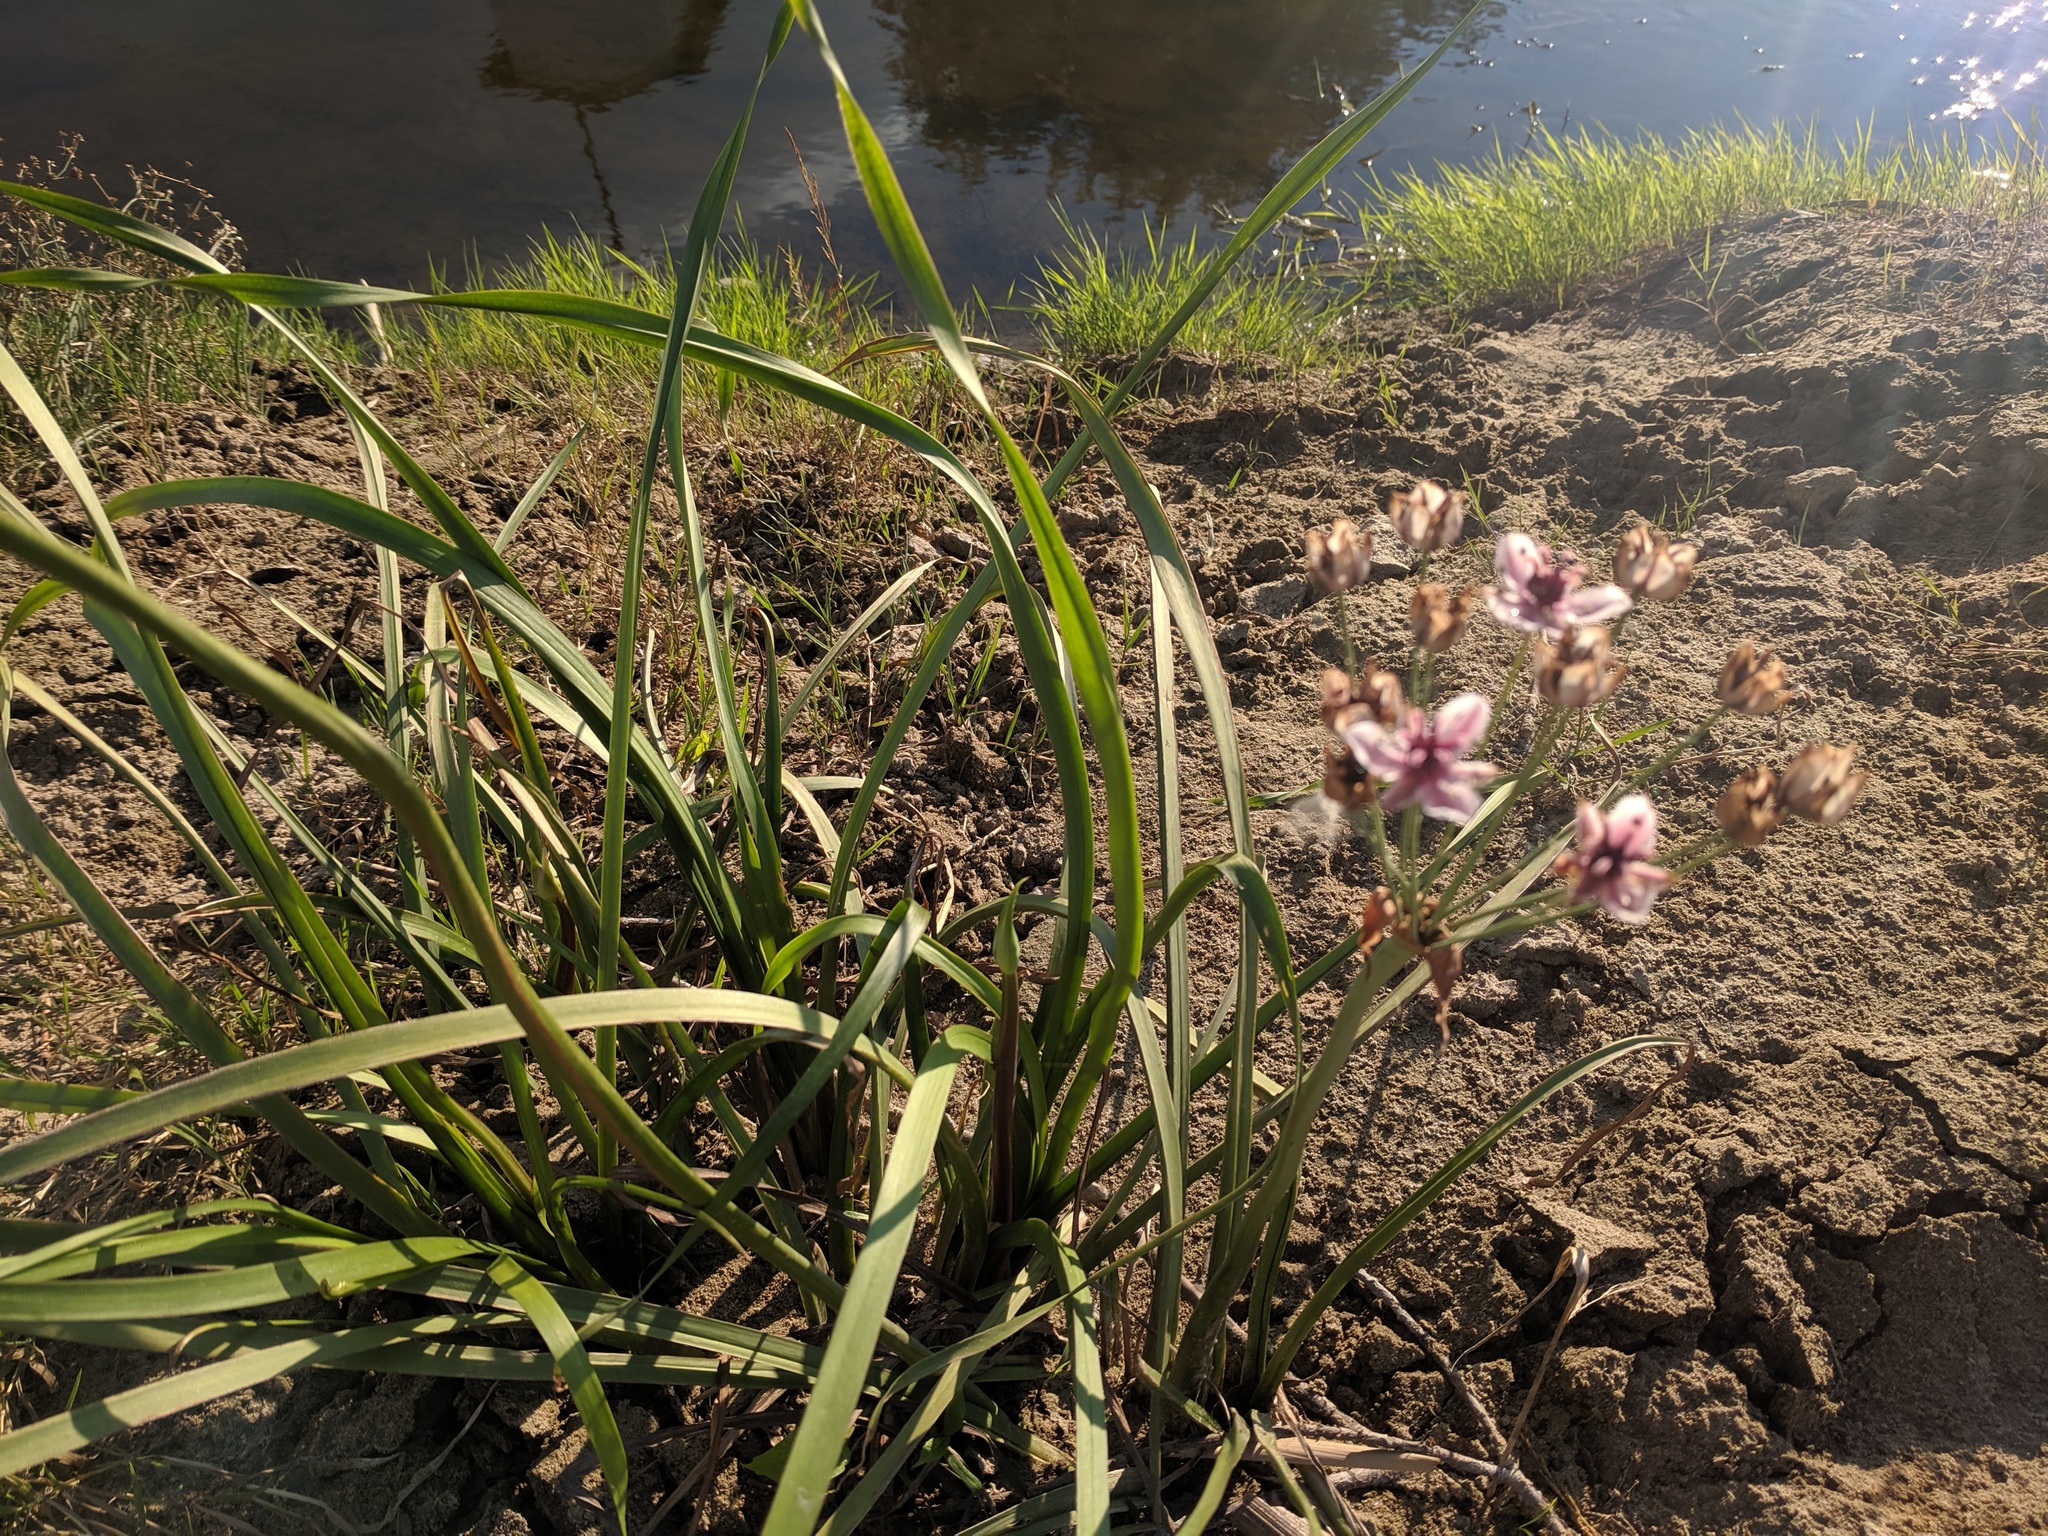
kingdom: Plantae
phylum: Tracheophyta
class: Liliopsida
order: Alismatales
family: Butomaceae
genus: Butomus
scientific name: Butomus umbellatus
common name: Flowering-rush
